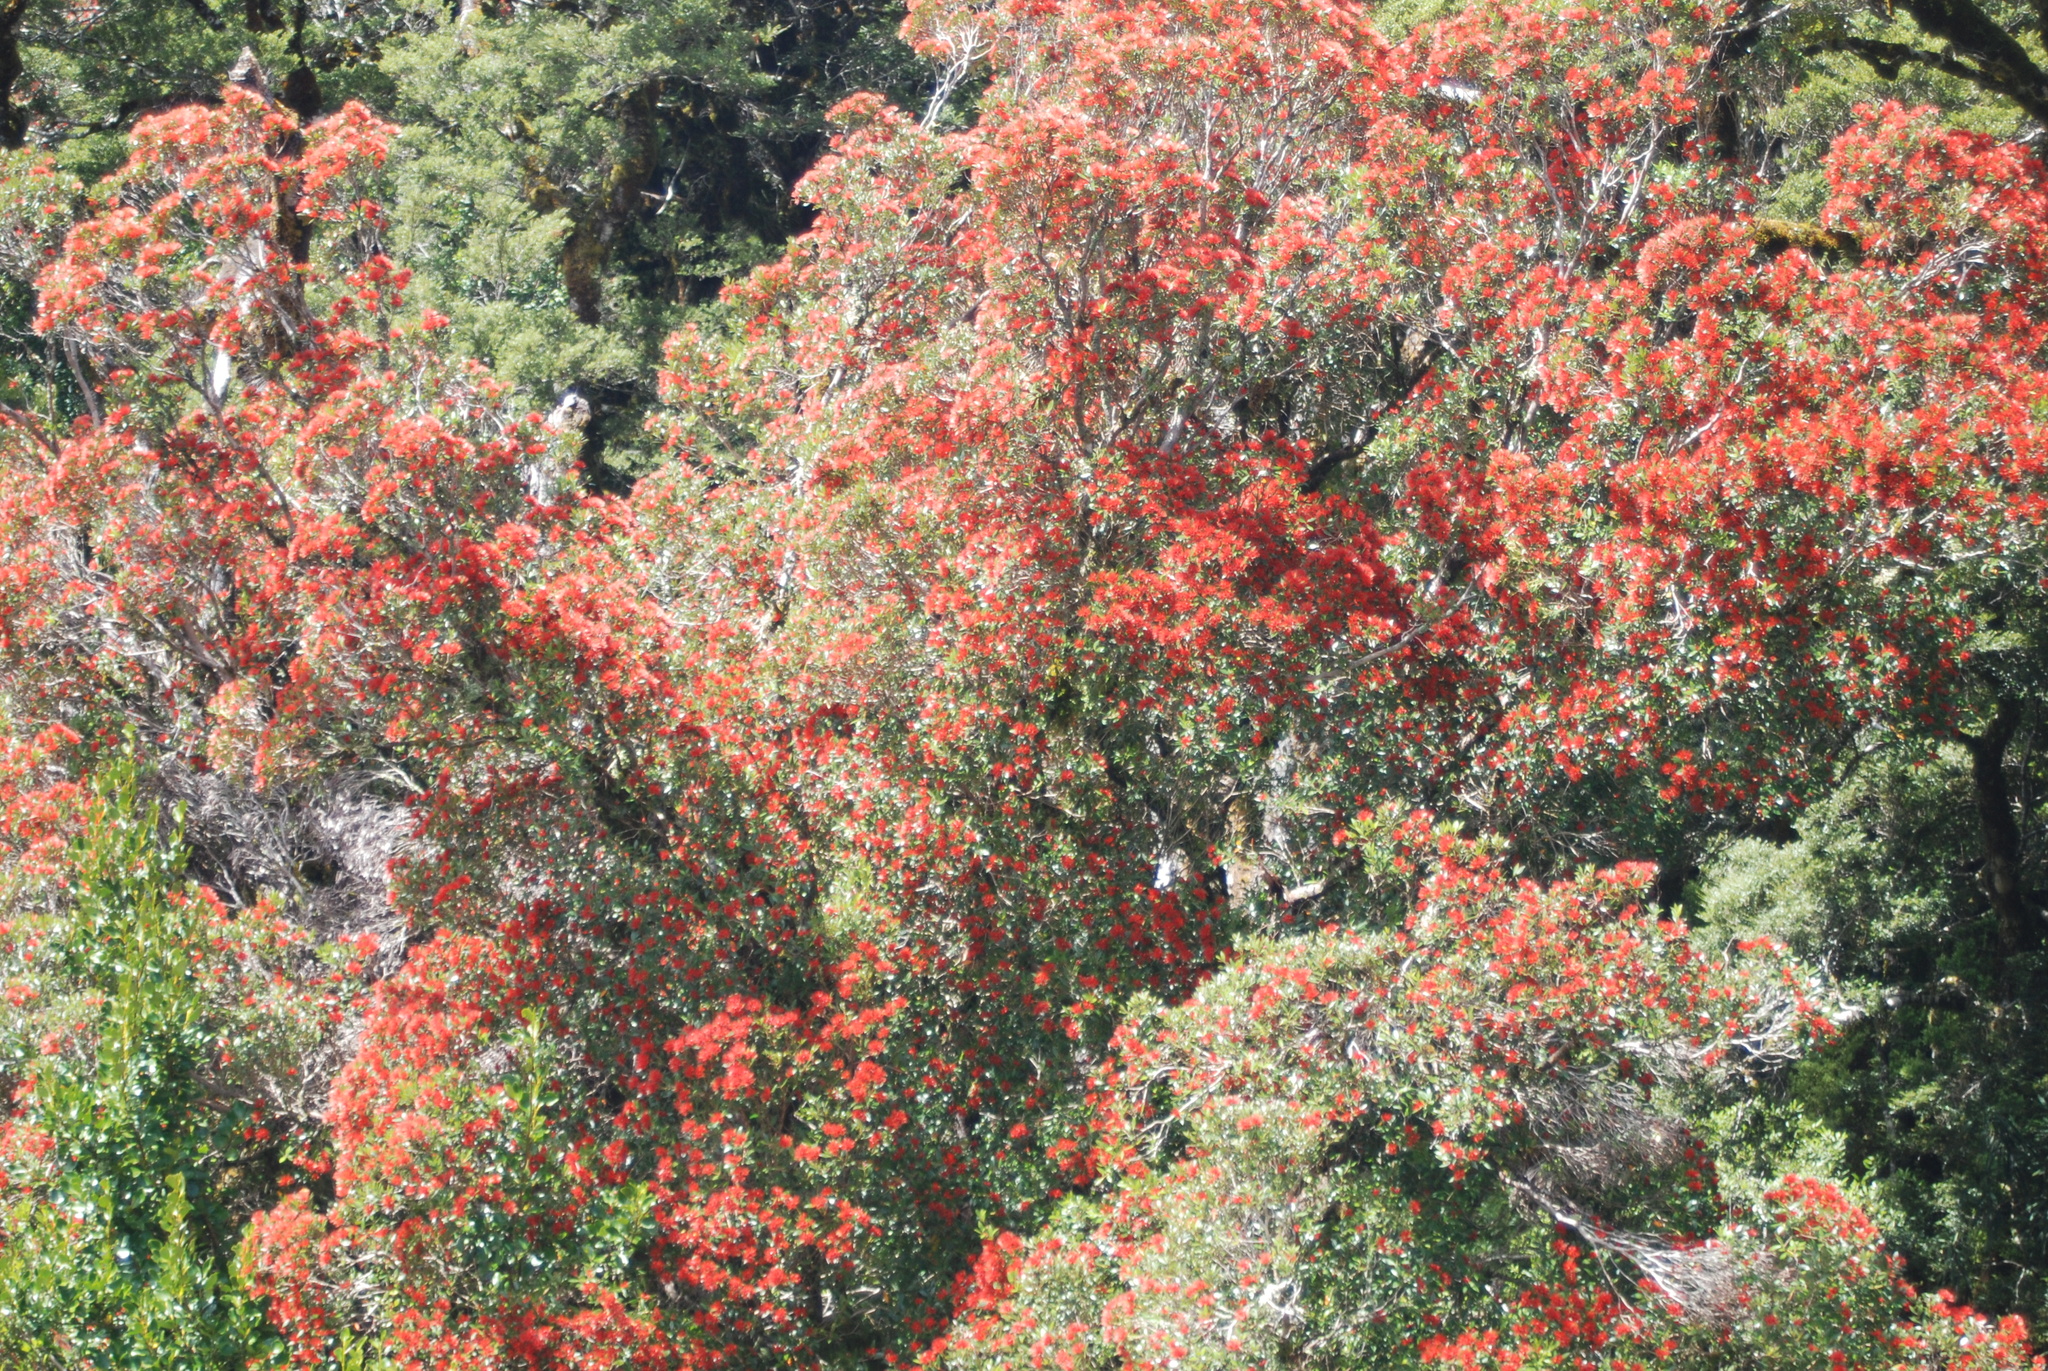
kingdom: Plantae
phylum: Tracheophyta
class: Magnoliopsida
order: Myrtales
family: Myrtaceae
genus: Metrosideros
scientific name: Metrosideros umbellata
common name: Southern rata
